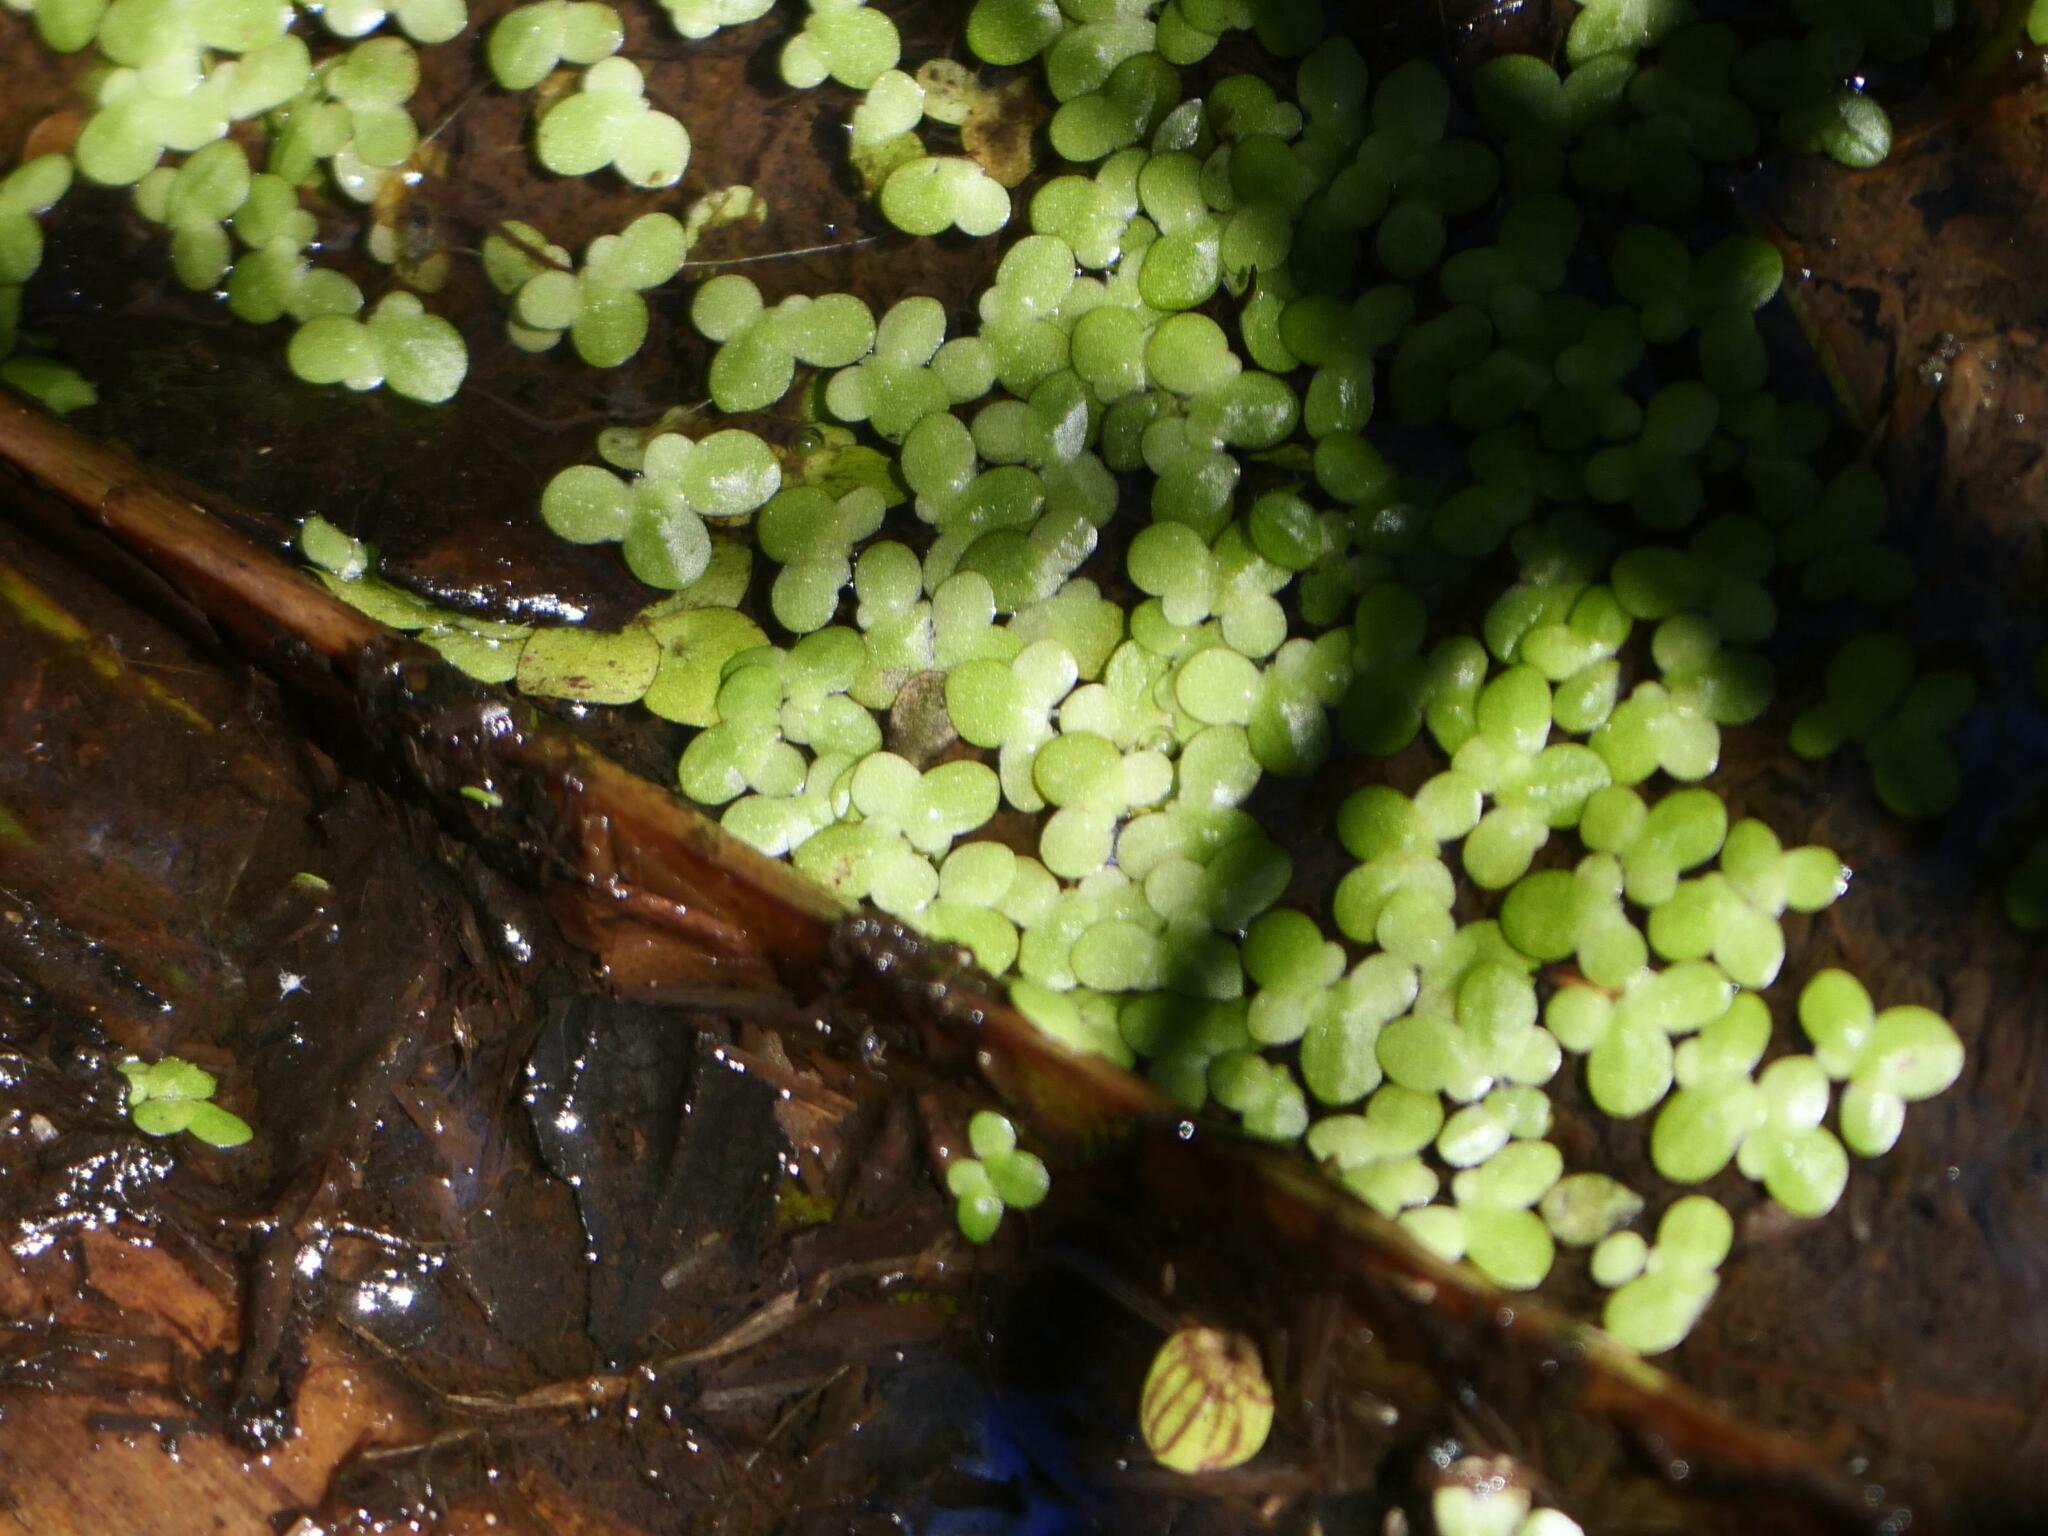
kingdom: Plantae
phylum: Tracheophyta
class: Liliopsida
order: Alismatales
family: Araceae
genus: Lemna
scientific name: Lemna minor
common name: Common duckweed
